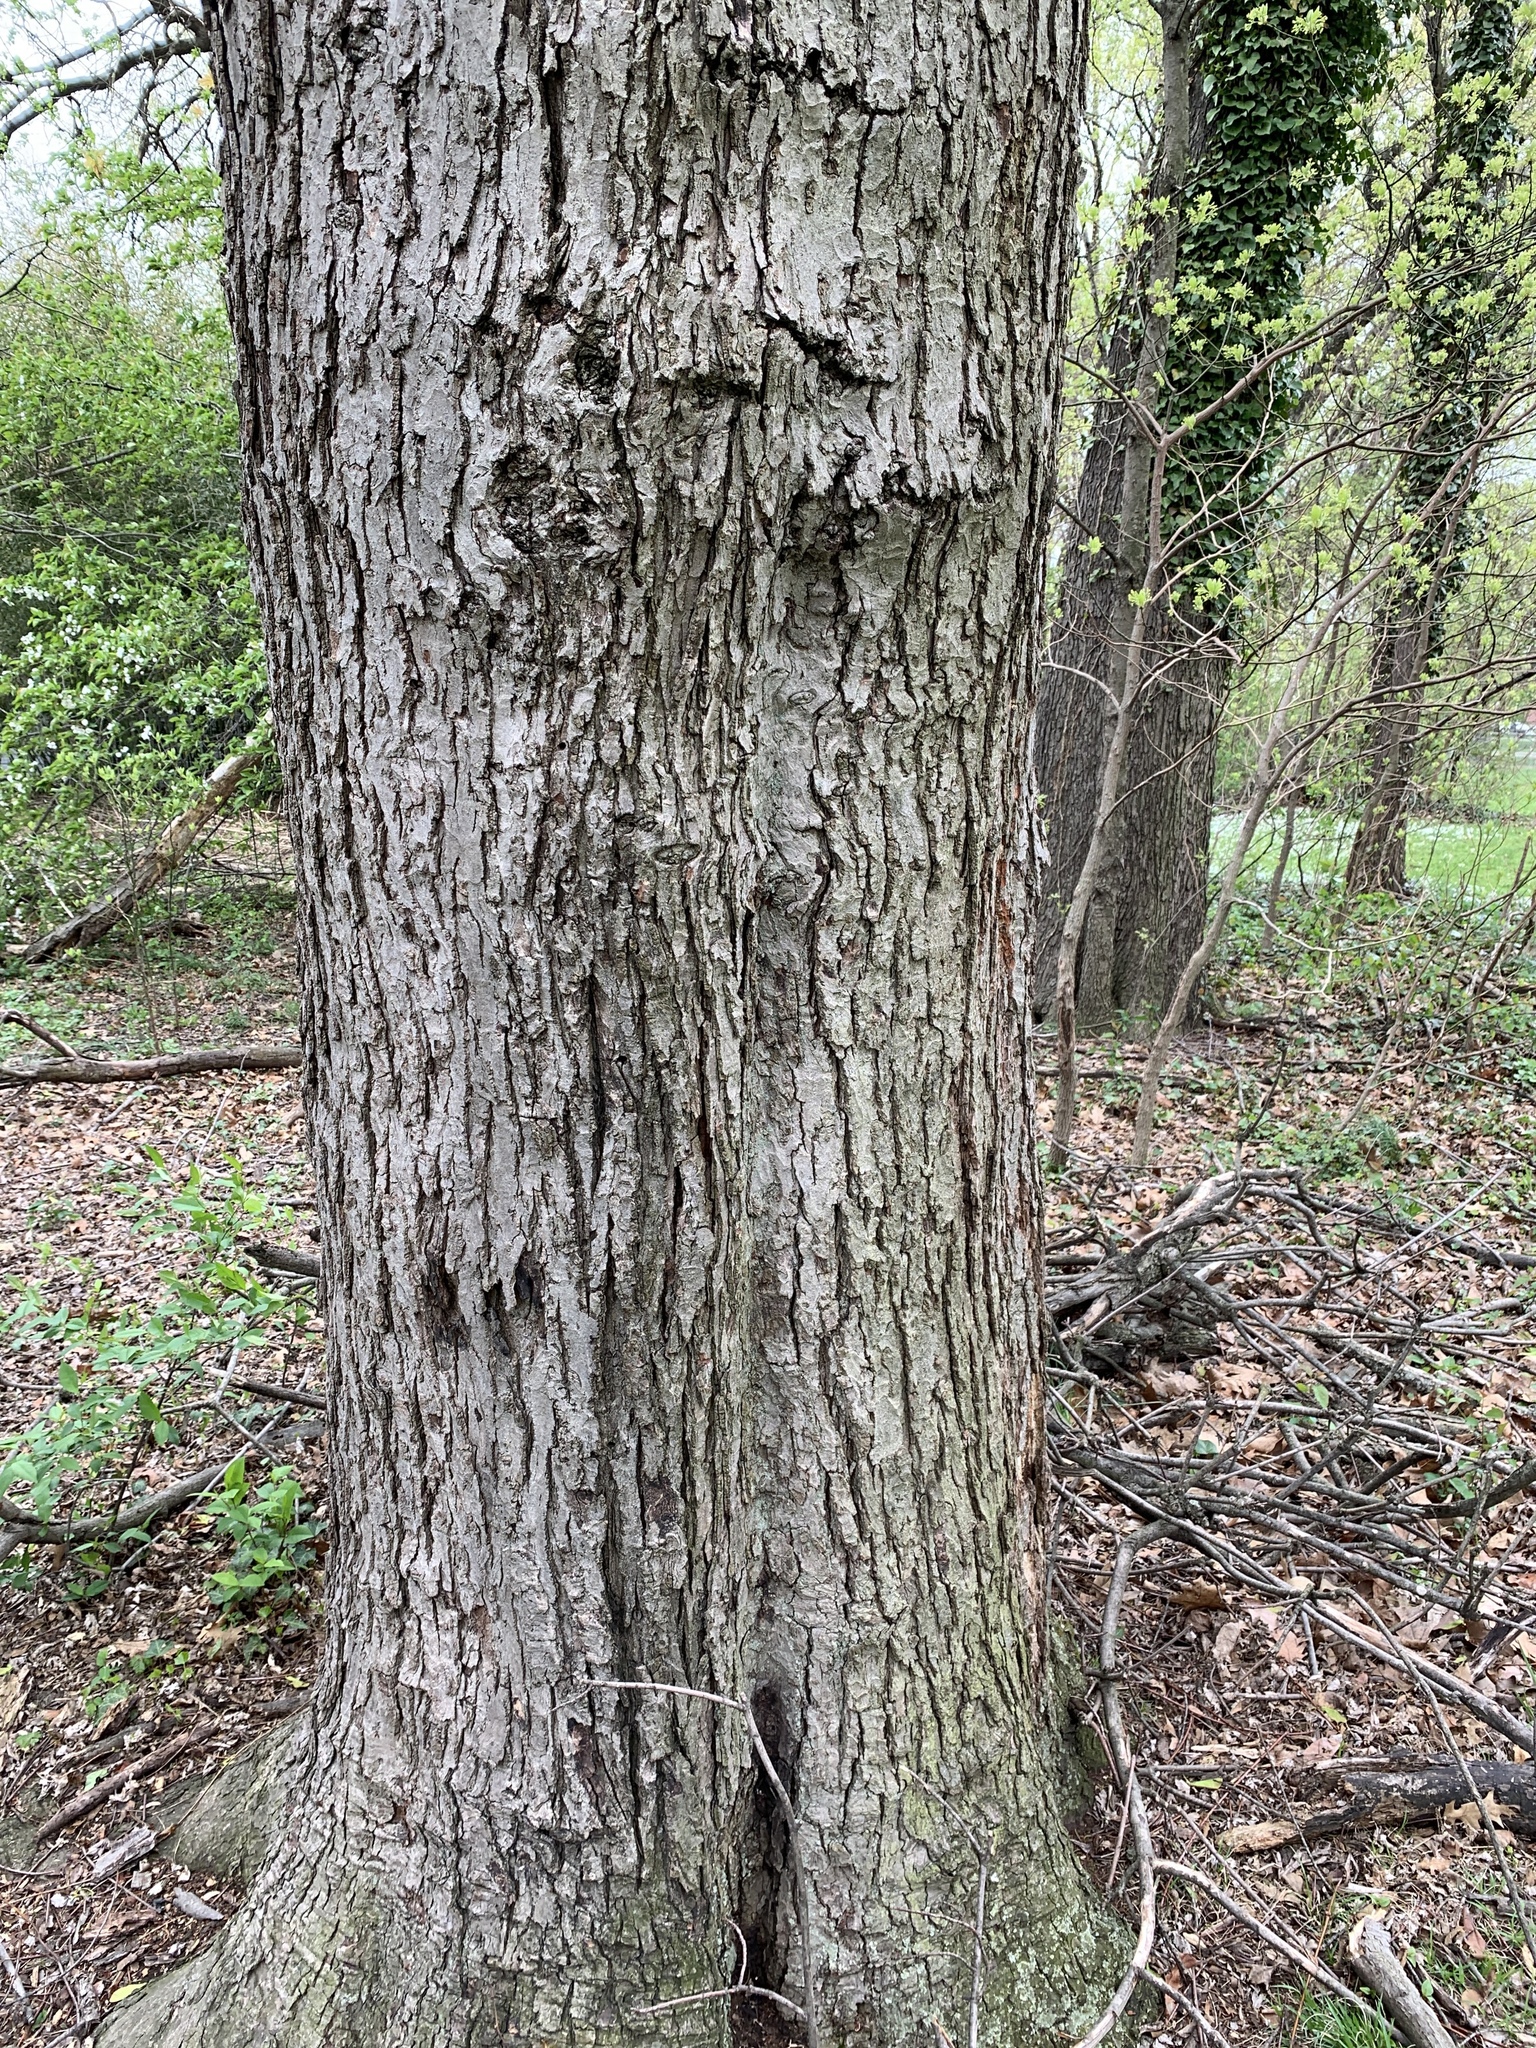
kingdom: Plantae
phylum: Tracheophyta
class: Magnoliopsida
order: Sapindales
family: Sapindaceae
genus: Acer
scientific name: Acer saccharinum
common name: Silver maple
